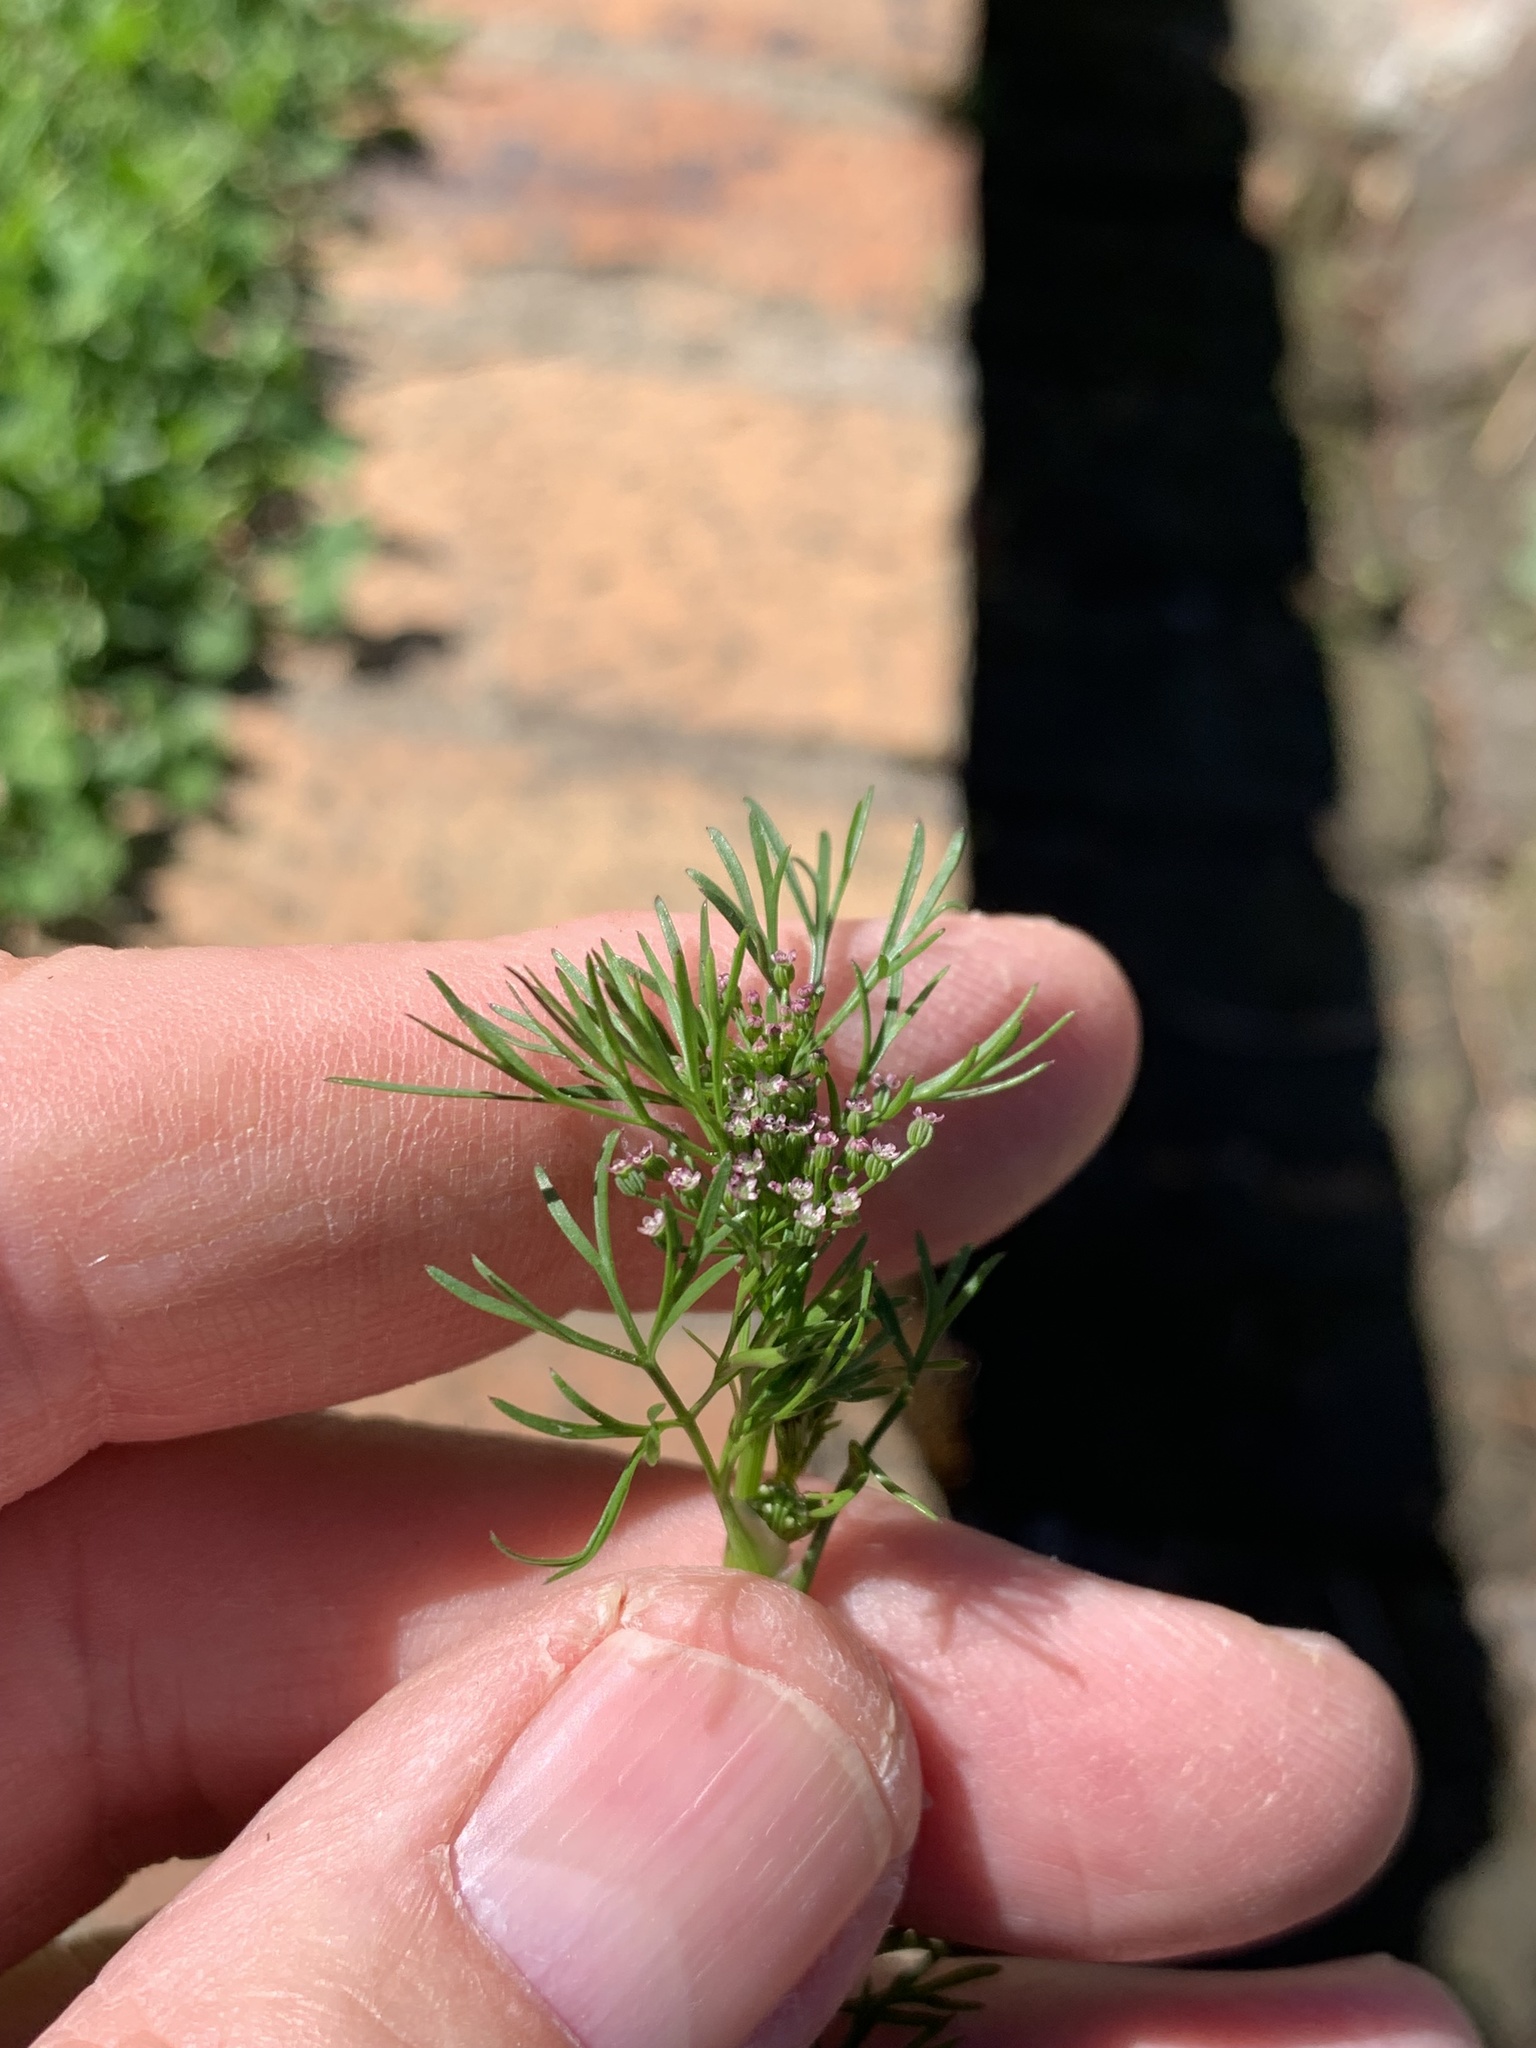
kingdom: Plantae
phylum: Tracheophyta
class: Magnoliopsida
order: Apiales
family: Apiaceae
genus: Cyclospermum
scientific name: Cyclospermum leptophyllum
